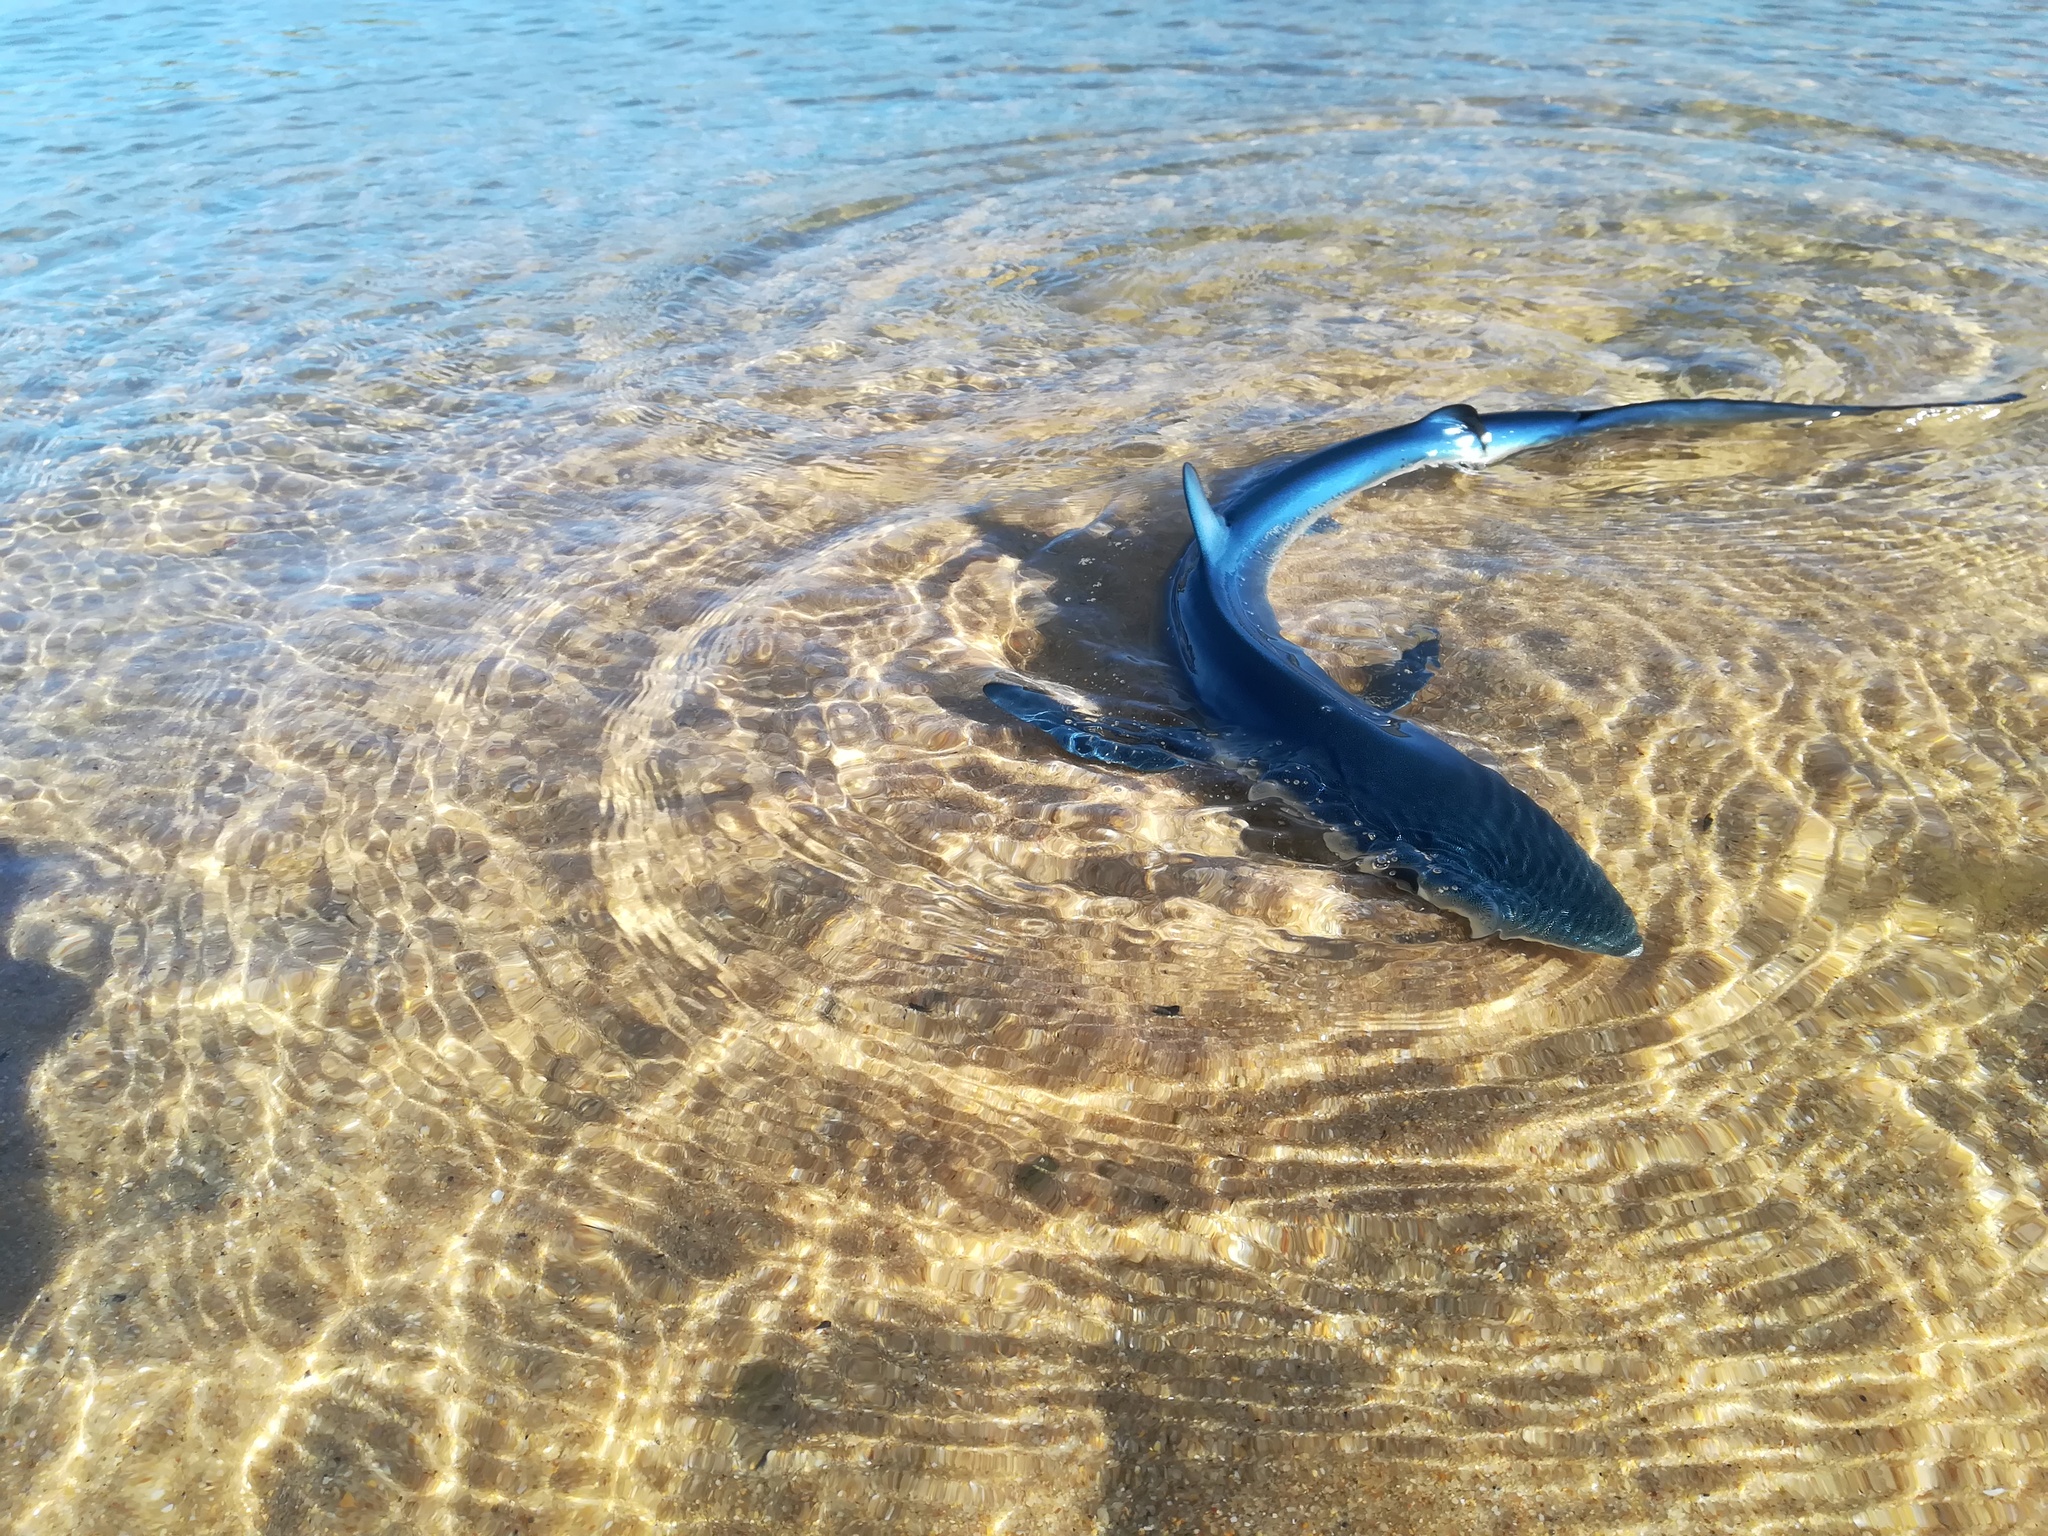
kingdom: Animalia
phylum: Chordata
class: Elasmobranchii
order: Carcharhiniformes
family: Carcharhinidae
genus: Prionace
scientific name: Prionace glauca
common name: Blue shark
